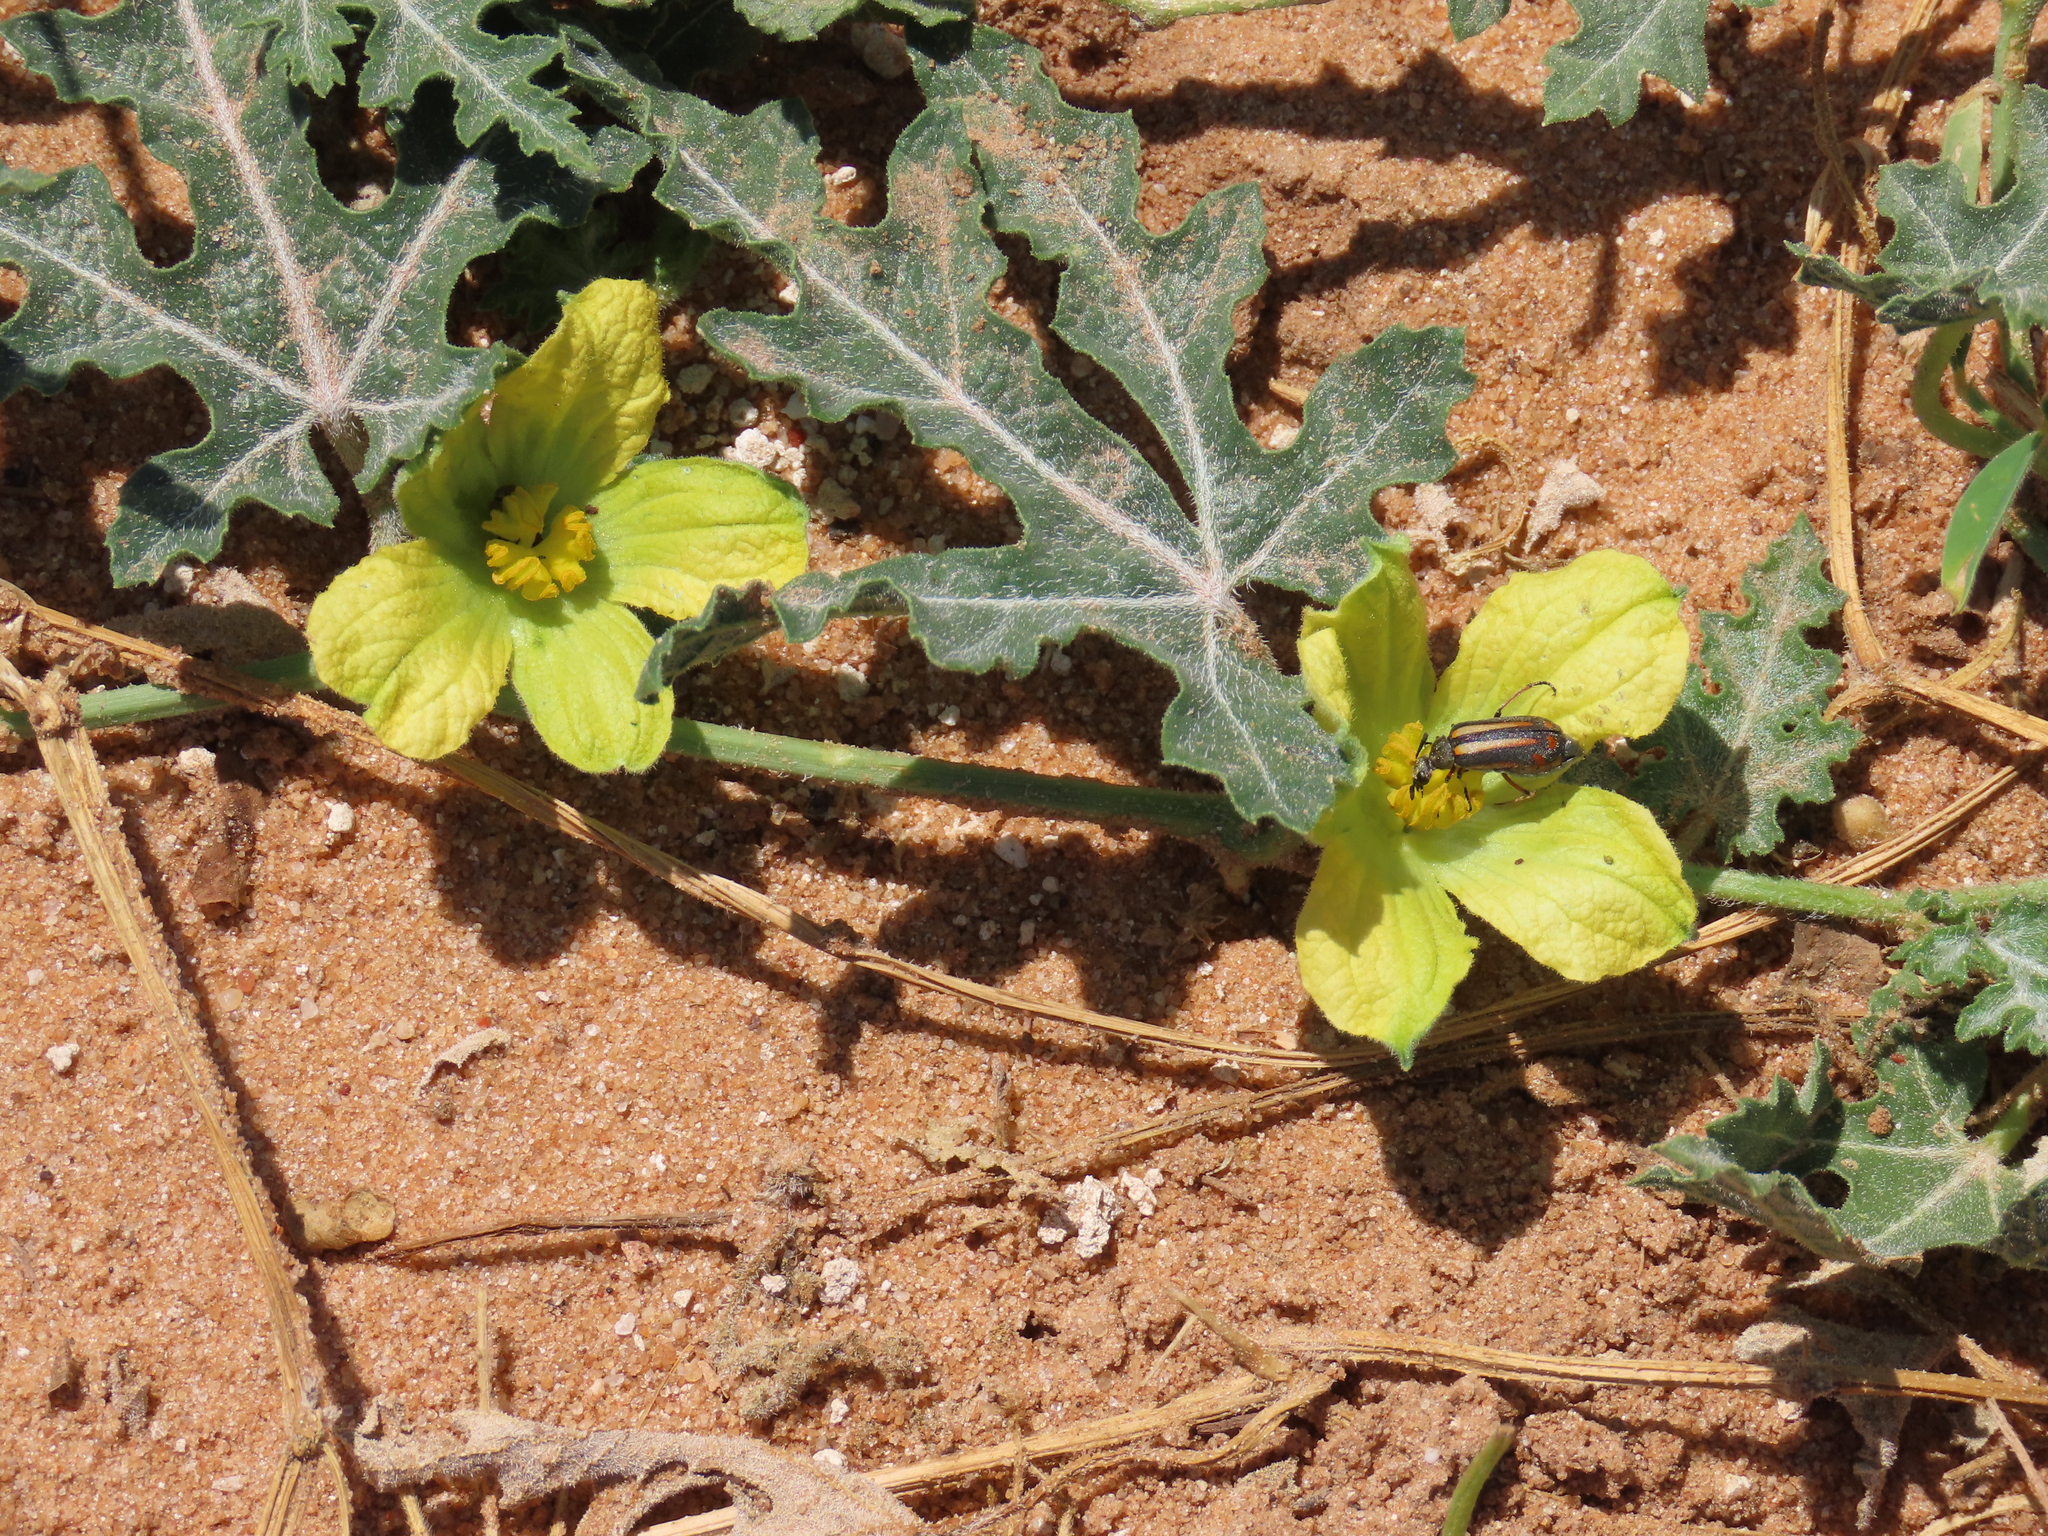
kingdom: Plantae
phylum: Tracheophyta
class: Magnoliopsida
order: Cucurbitales
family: Cucurbitaceae
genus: Citrullus
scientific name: Citrullus naudinianus
